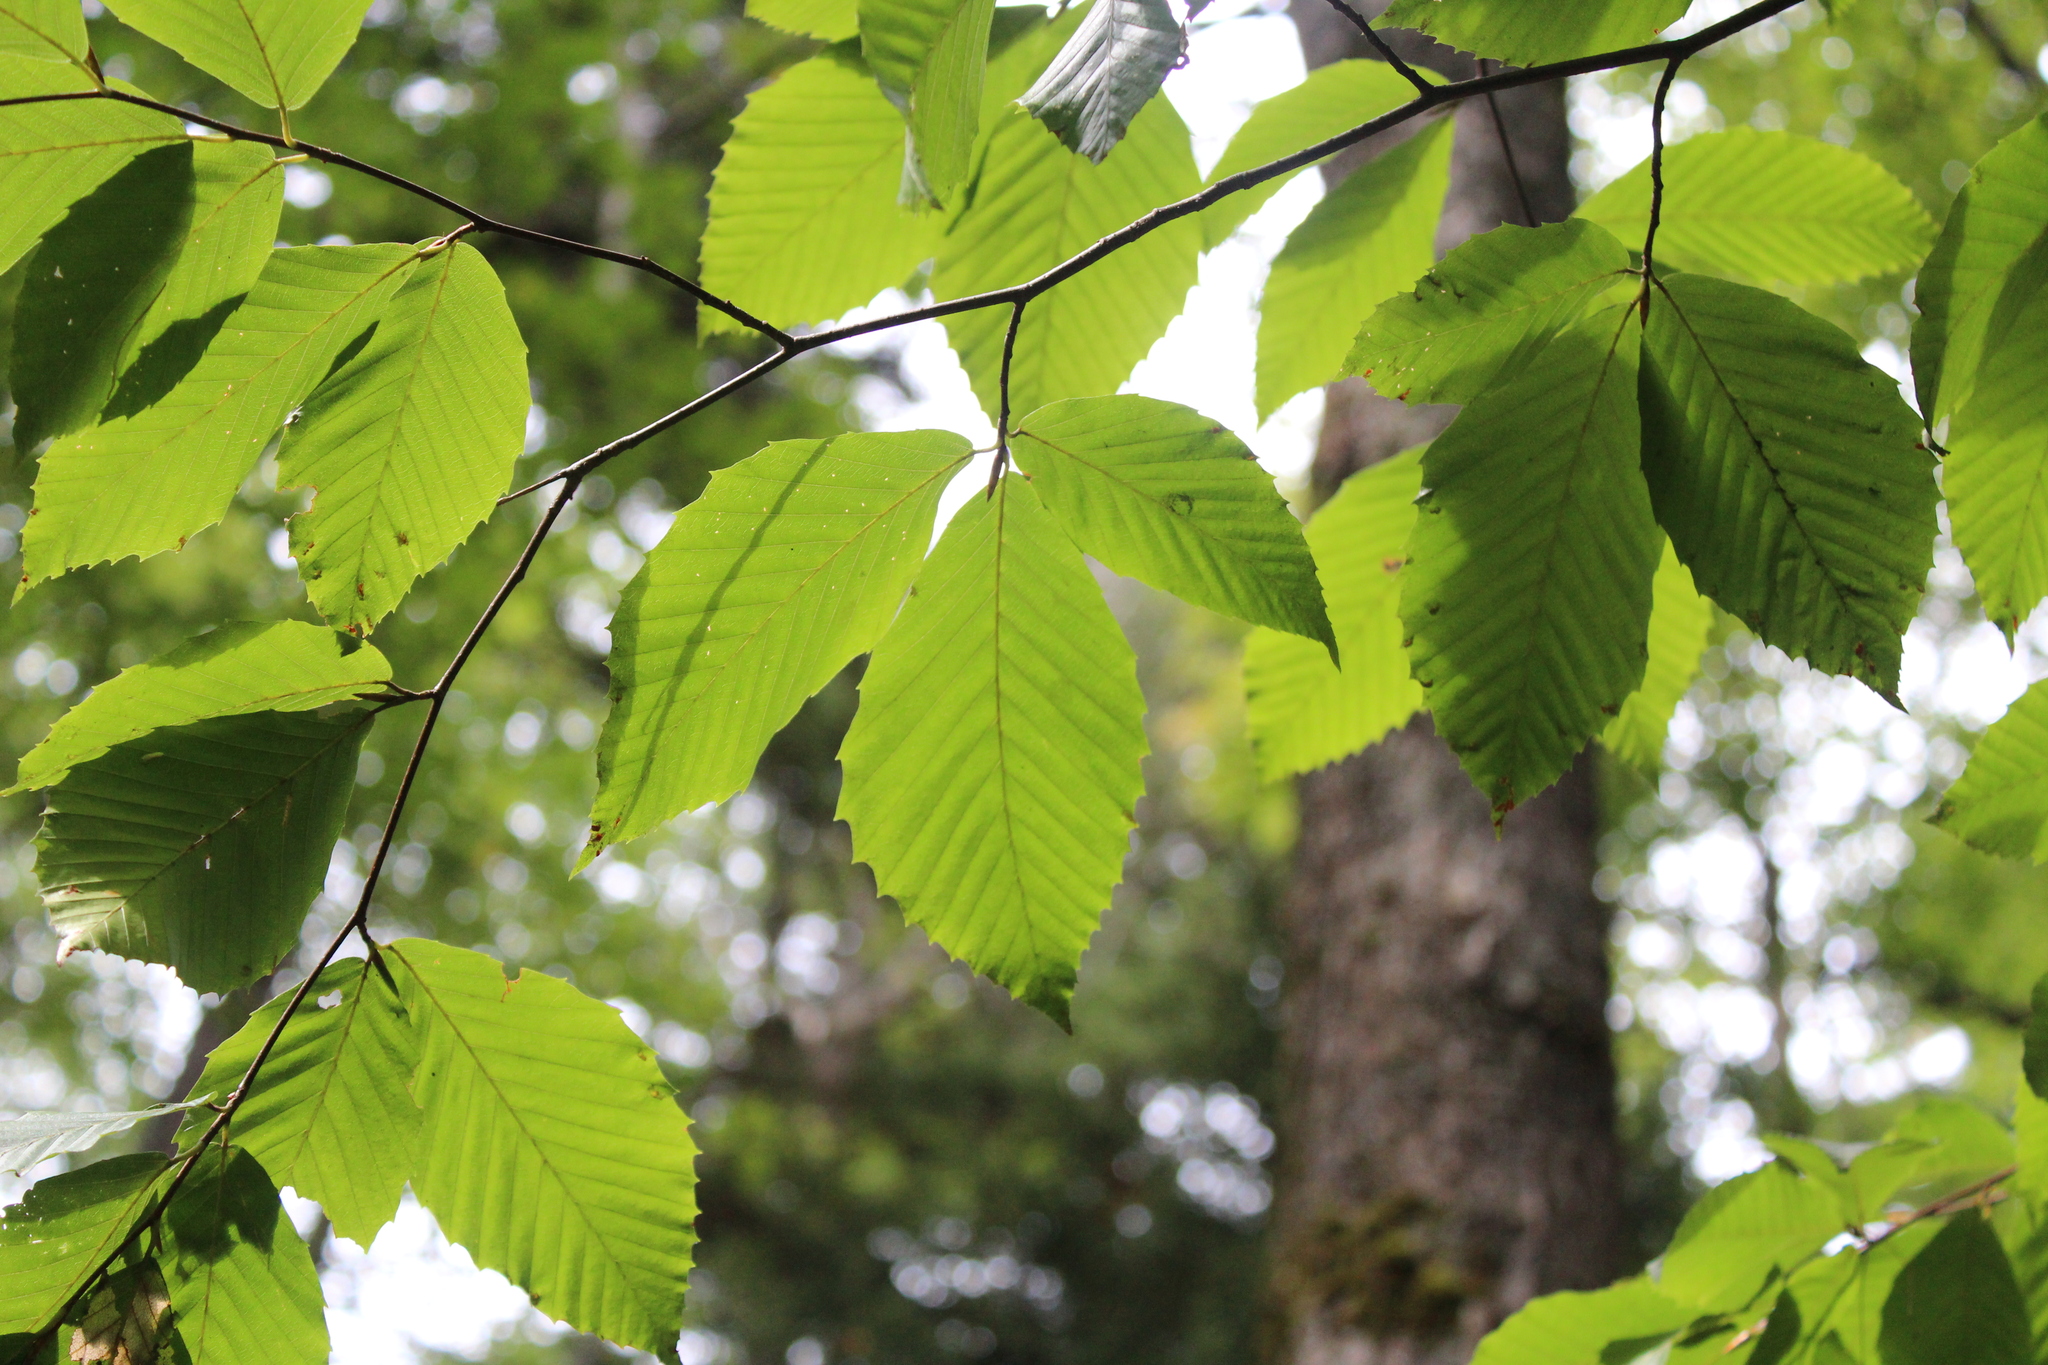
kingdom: Plantae
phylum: Tracheophyta
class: Magnoliopsida
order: Fagales
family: Fagaceae
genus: Fagus
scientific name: Fagus grandifolia
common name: American beech
